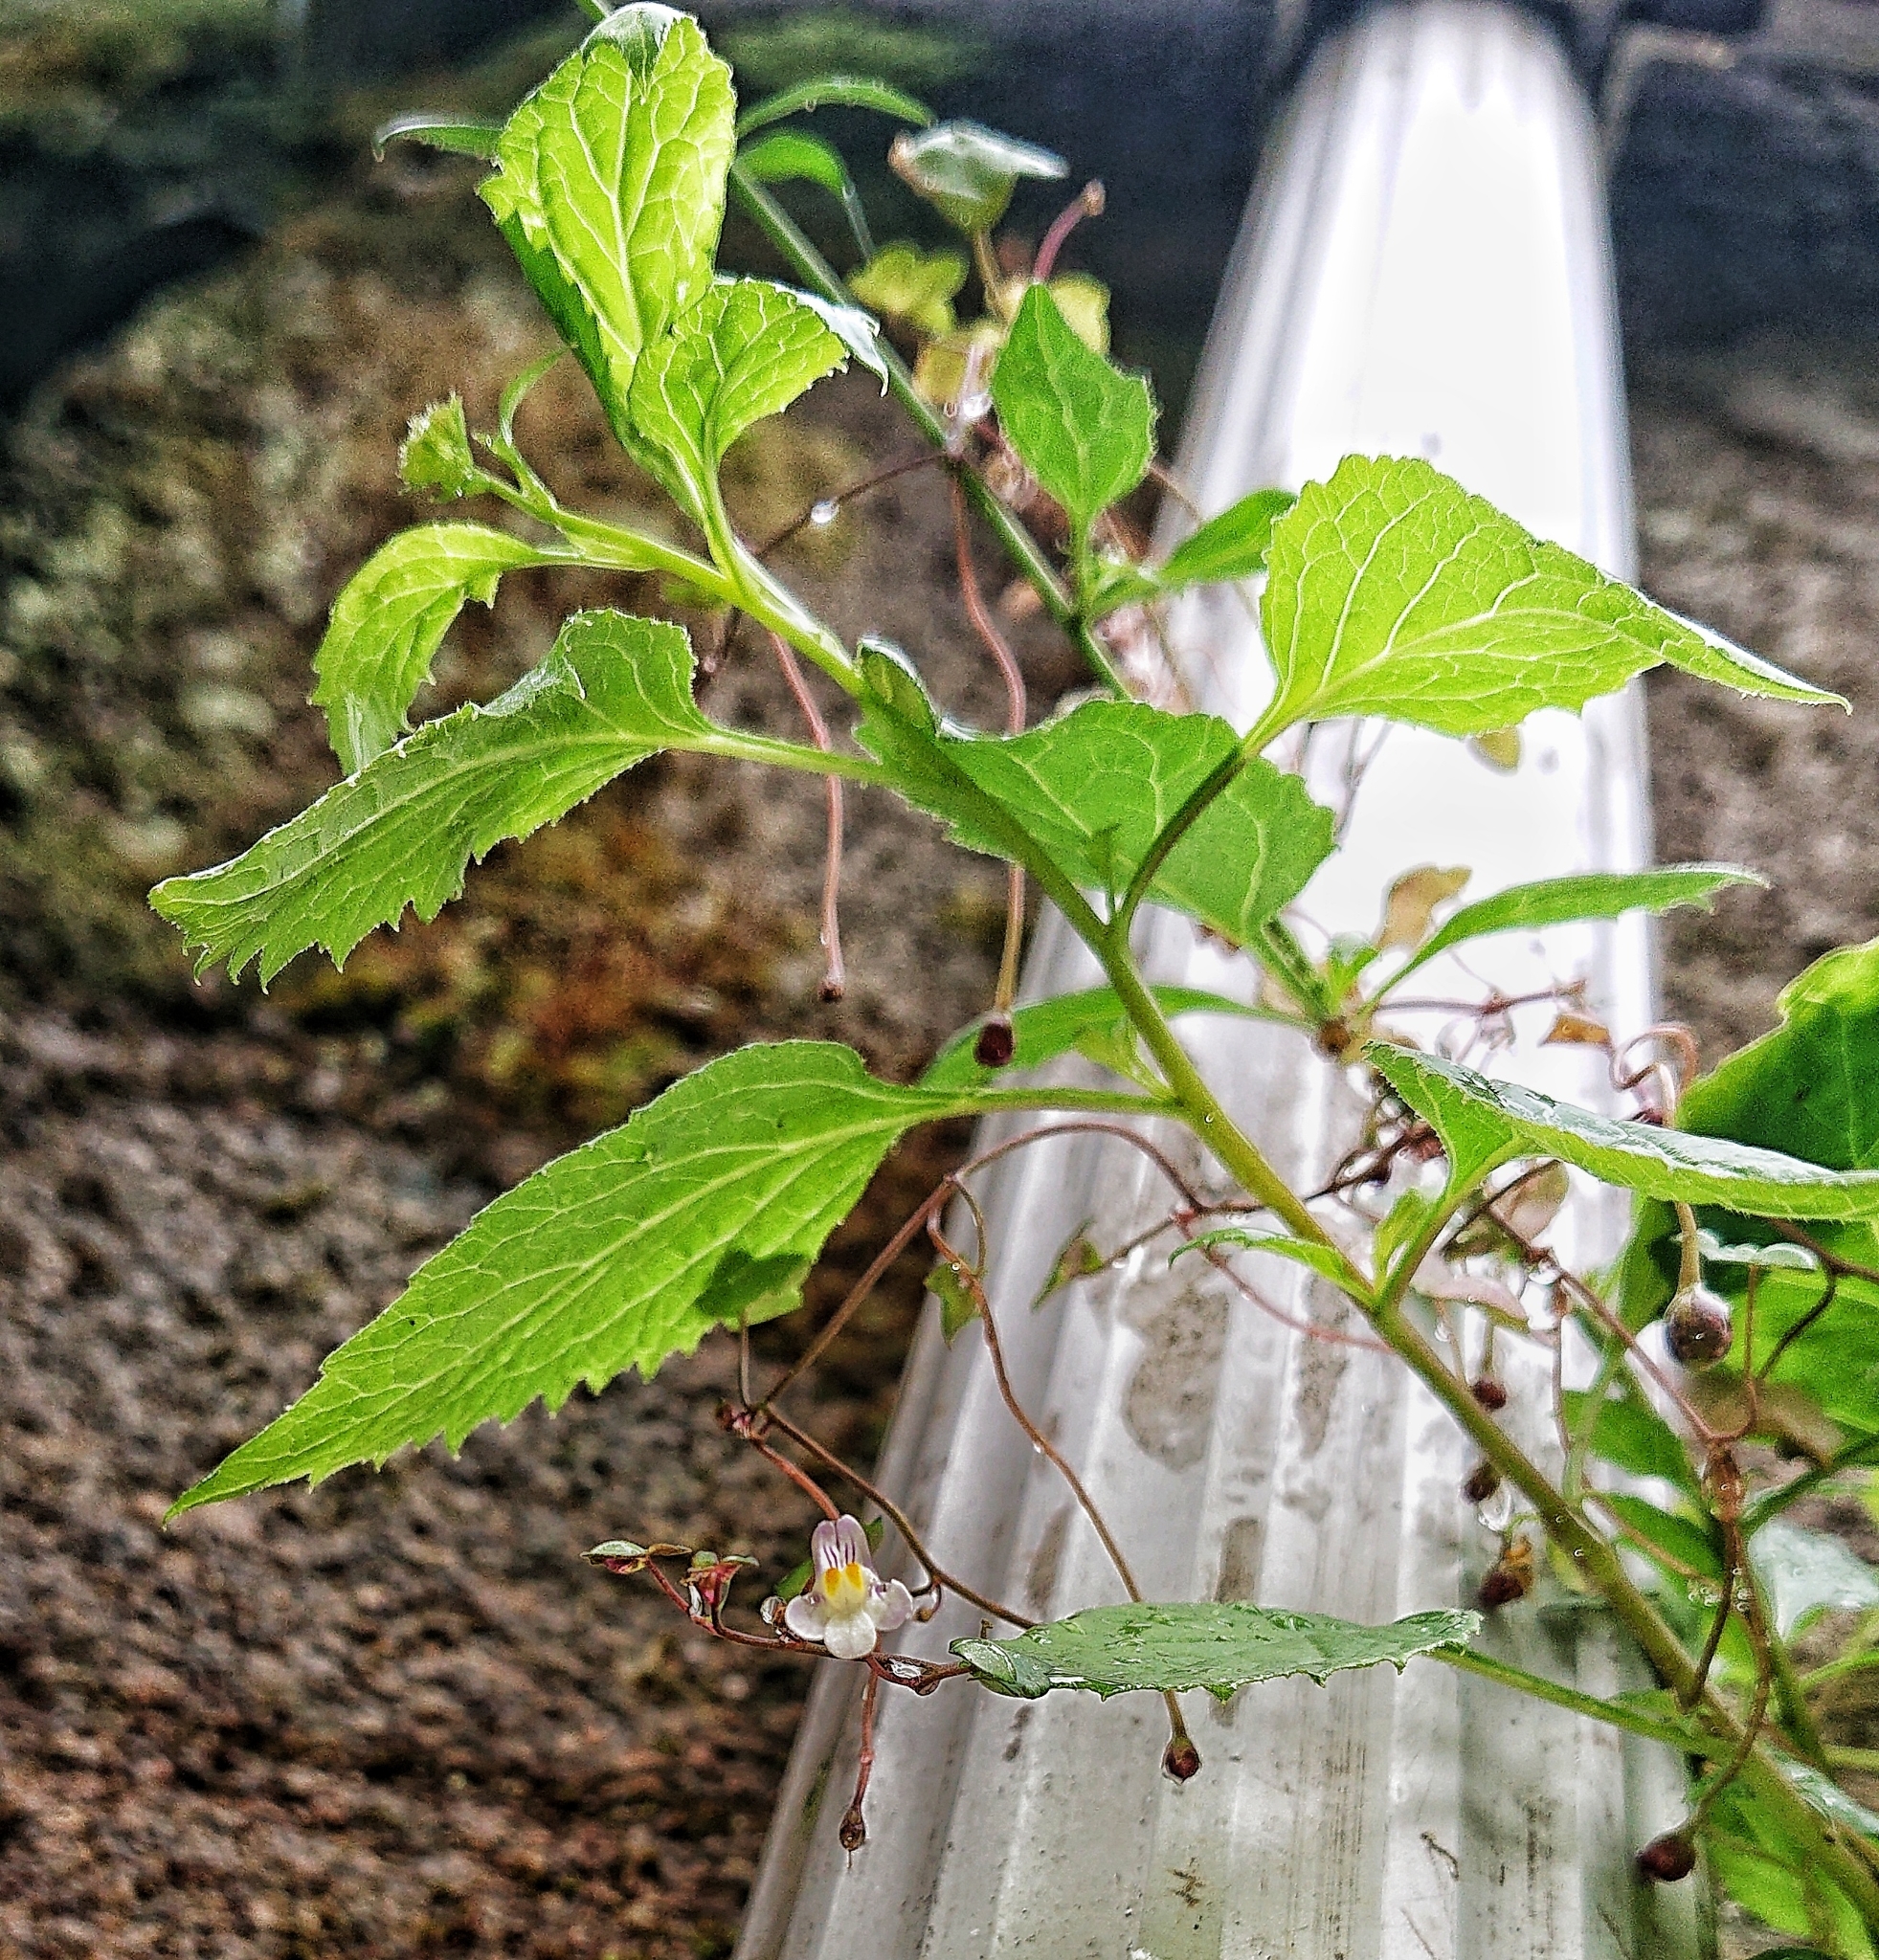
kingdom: Plantae
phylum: Tracheophyta
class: Magnoliopsida
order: Asterales
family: Campanulaceae
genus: Trachelium
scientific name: Trachelium caeruleum
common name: Throatwort
